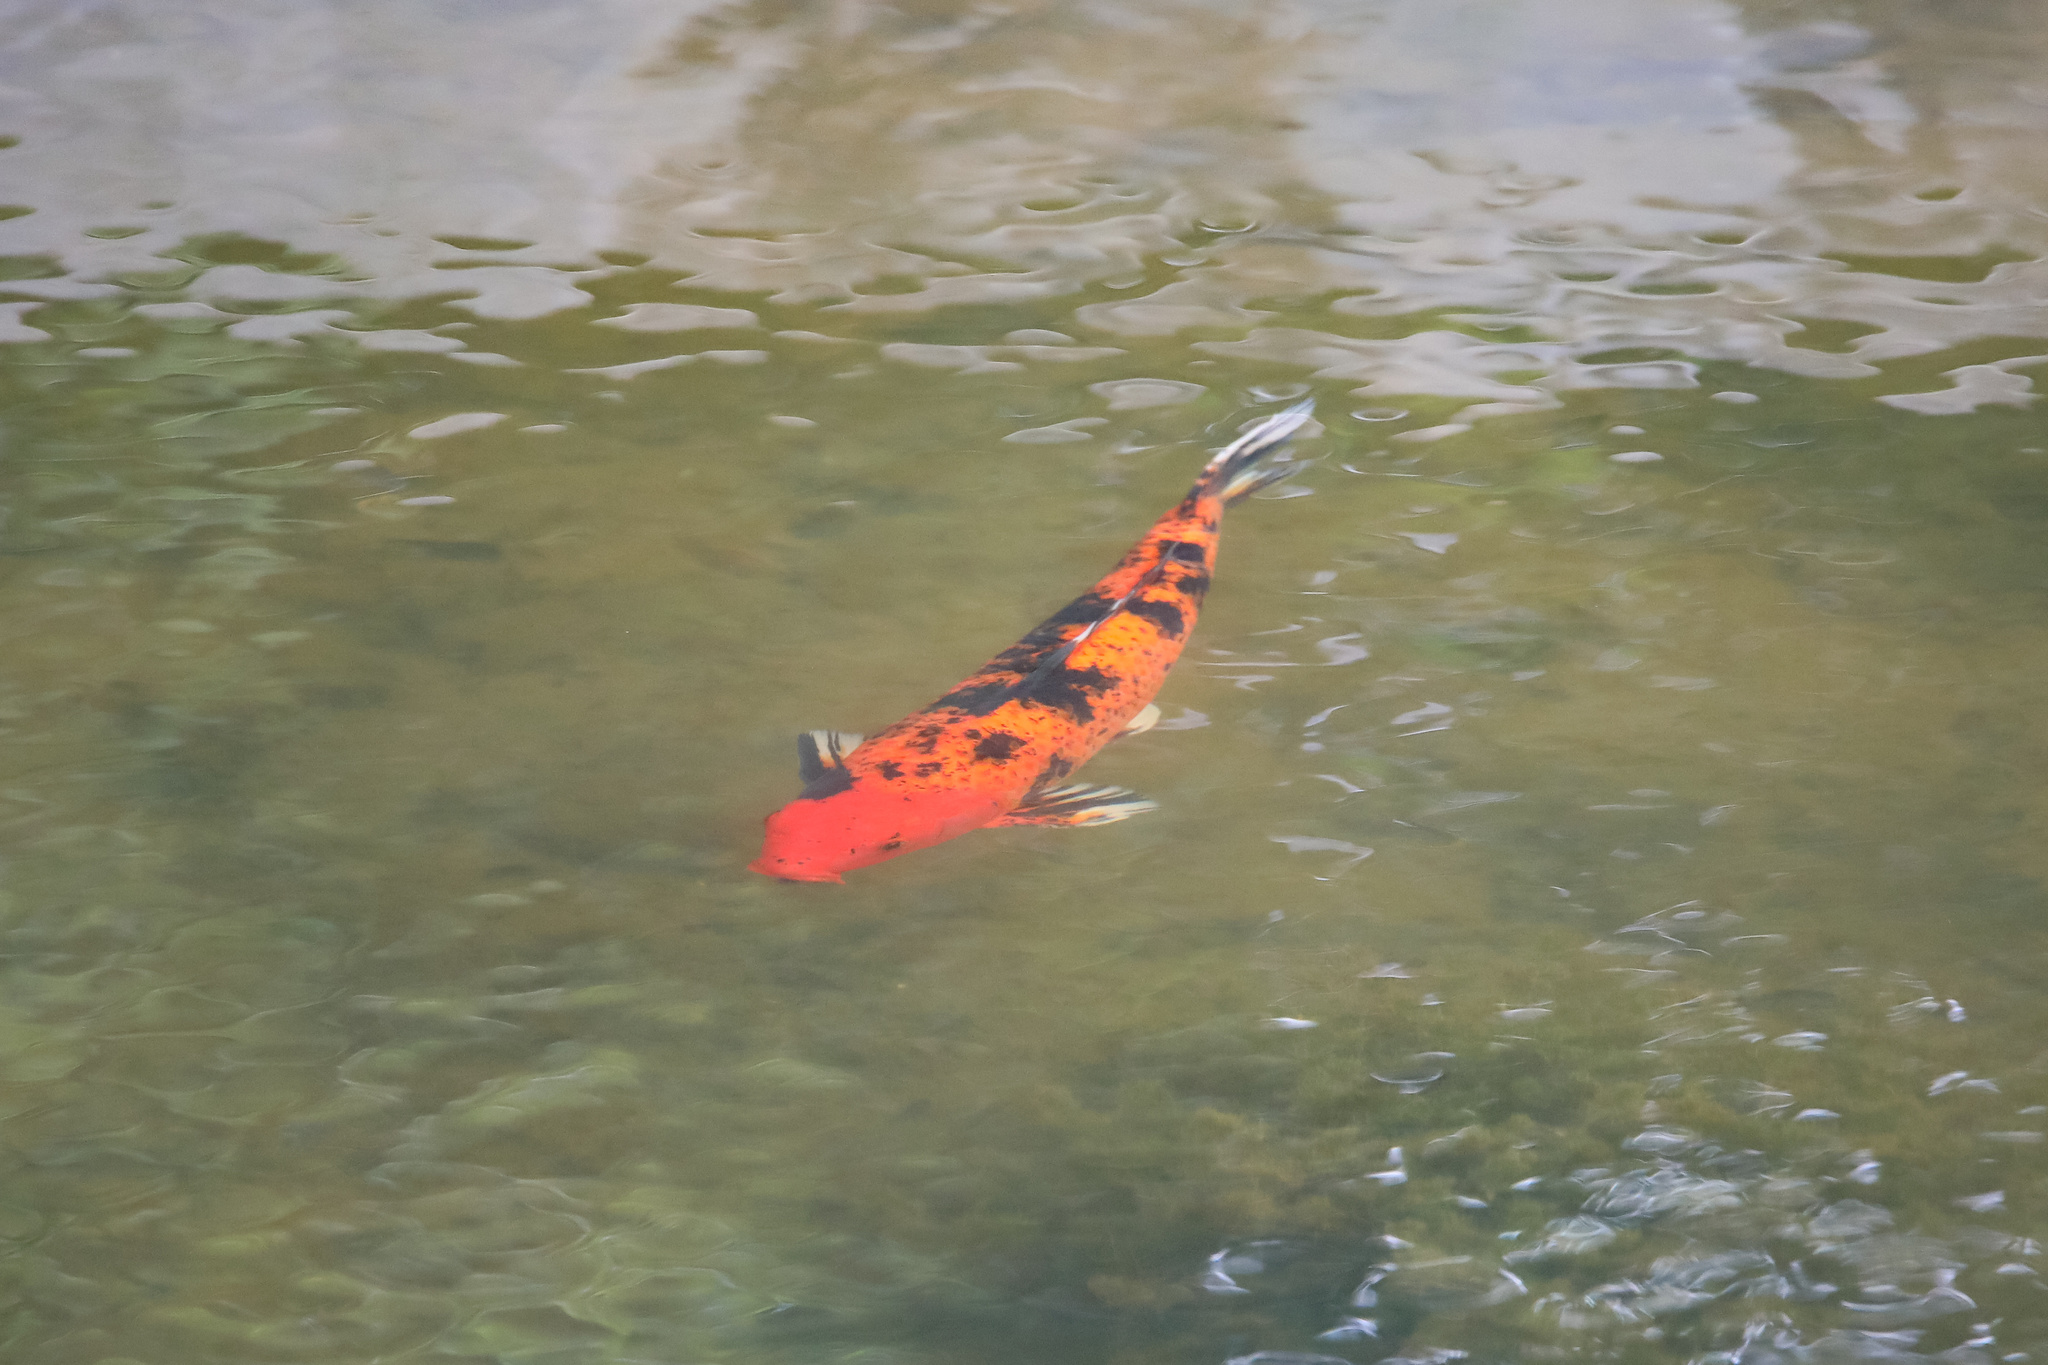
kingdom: Animalia
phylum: Chordata
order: Cypriniformes
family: Cyprinidae
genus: Cyprinus
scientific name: Cyprinus rubrofuscus
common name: Koi
